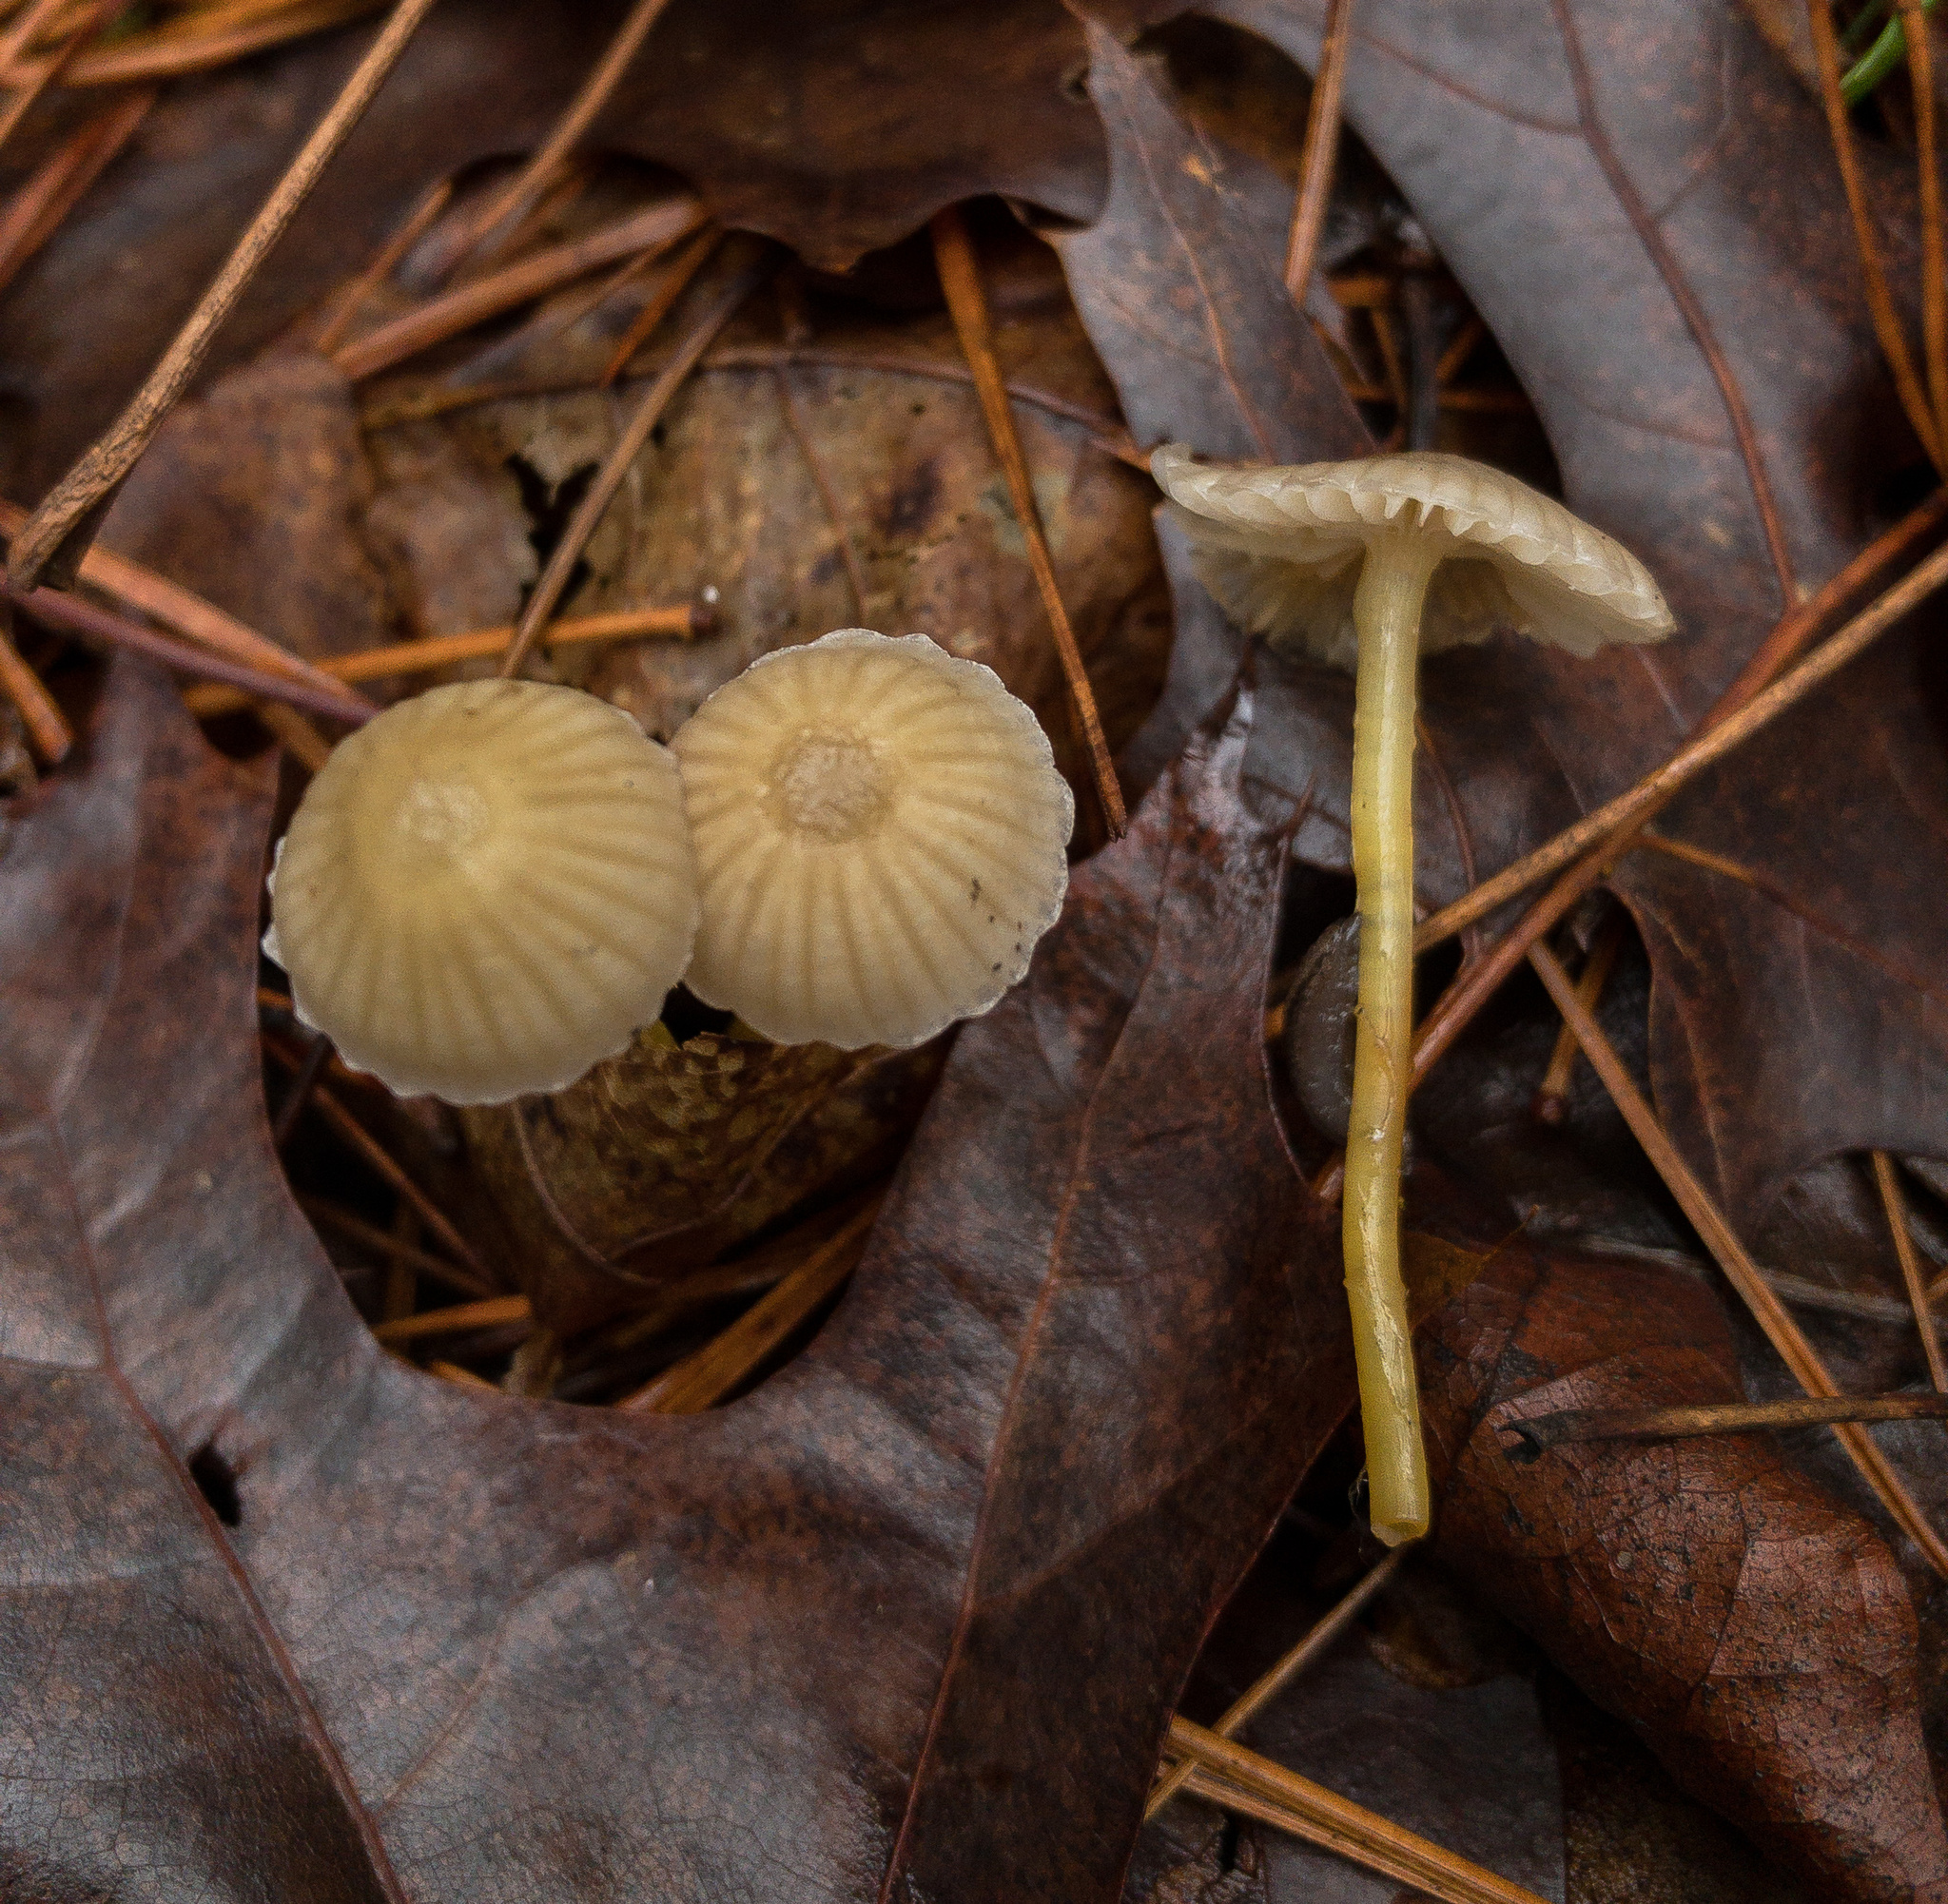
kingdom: Fungi
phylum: Basidiomycota
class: Agaricomycetes
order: Agaricales
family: Mycenaceae
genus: Mycena
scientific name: Mycena epipterygia
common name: Yellowleg bonnet
